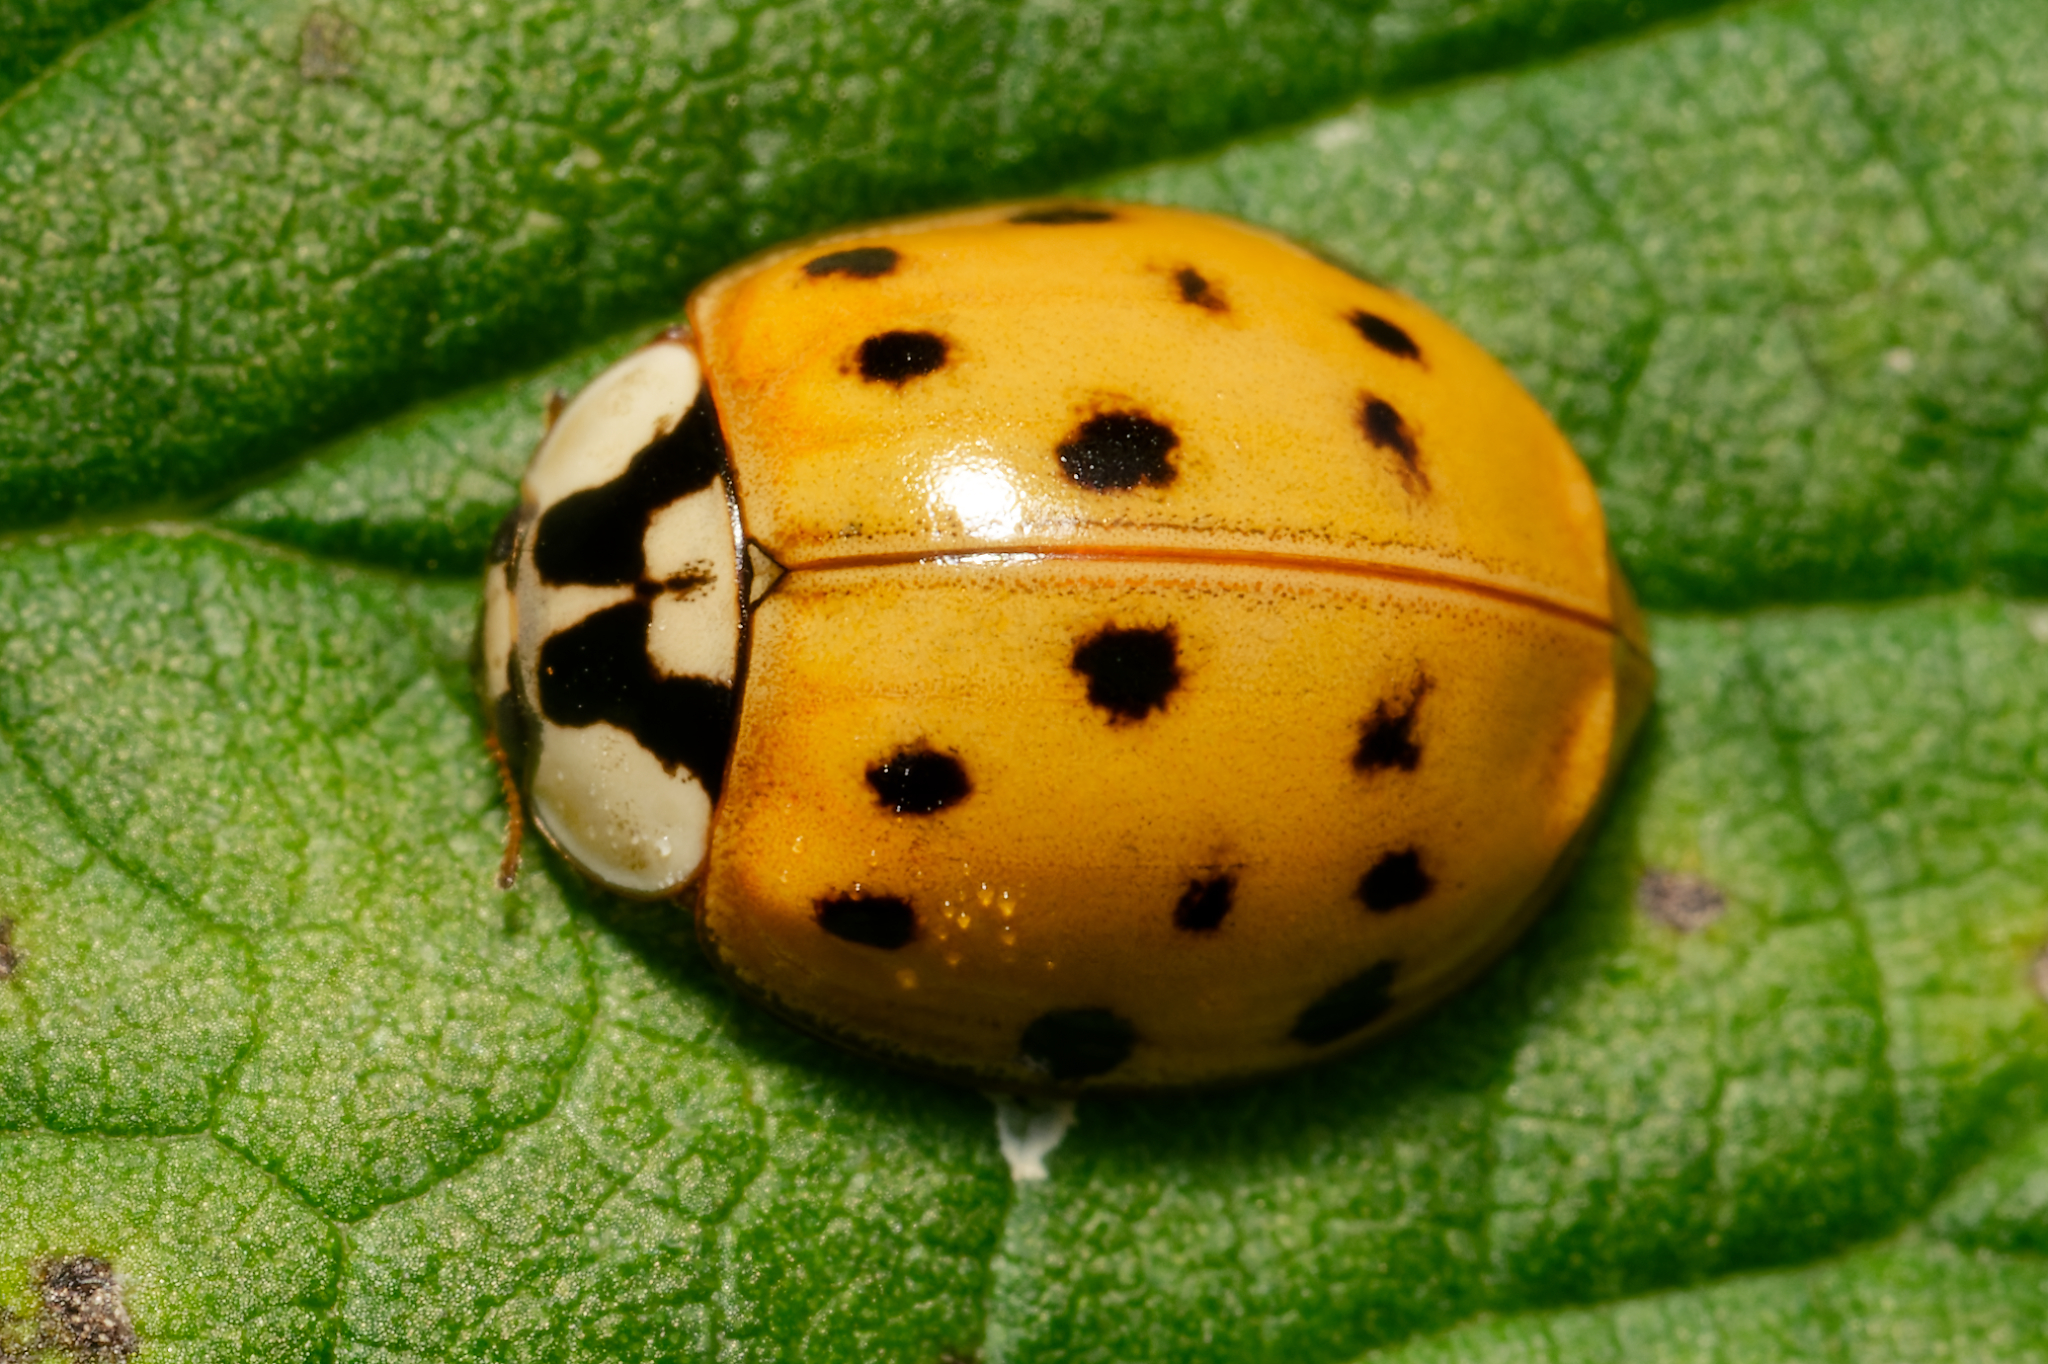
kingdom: Animalia
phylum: Arthropoda
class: Insecta
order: Coleoptera
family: Coccinellidae
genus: Harmonia
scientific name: Harmonia axyridis
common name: Harlequin ladybird
